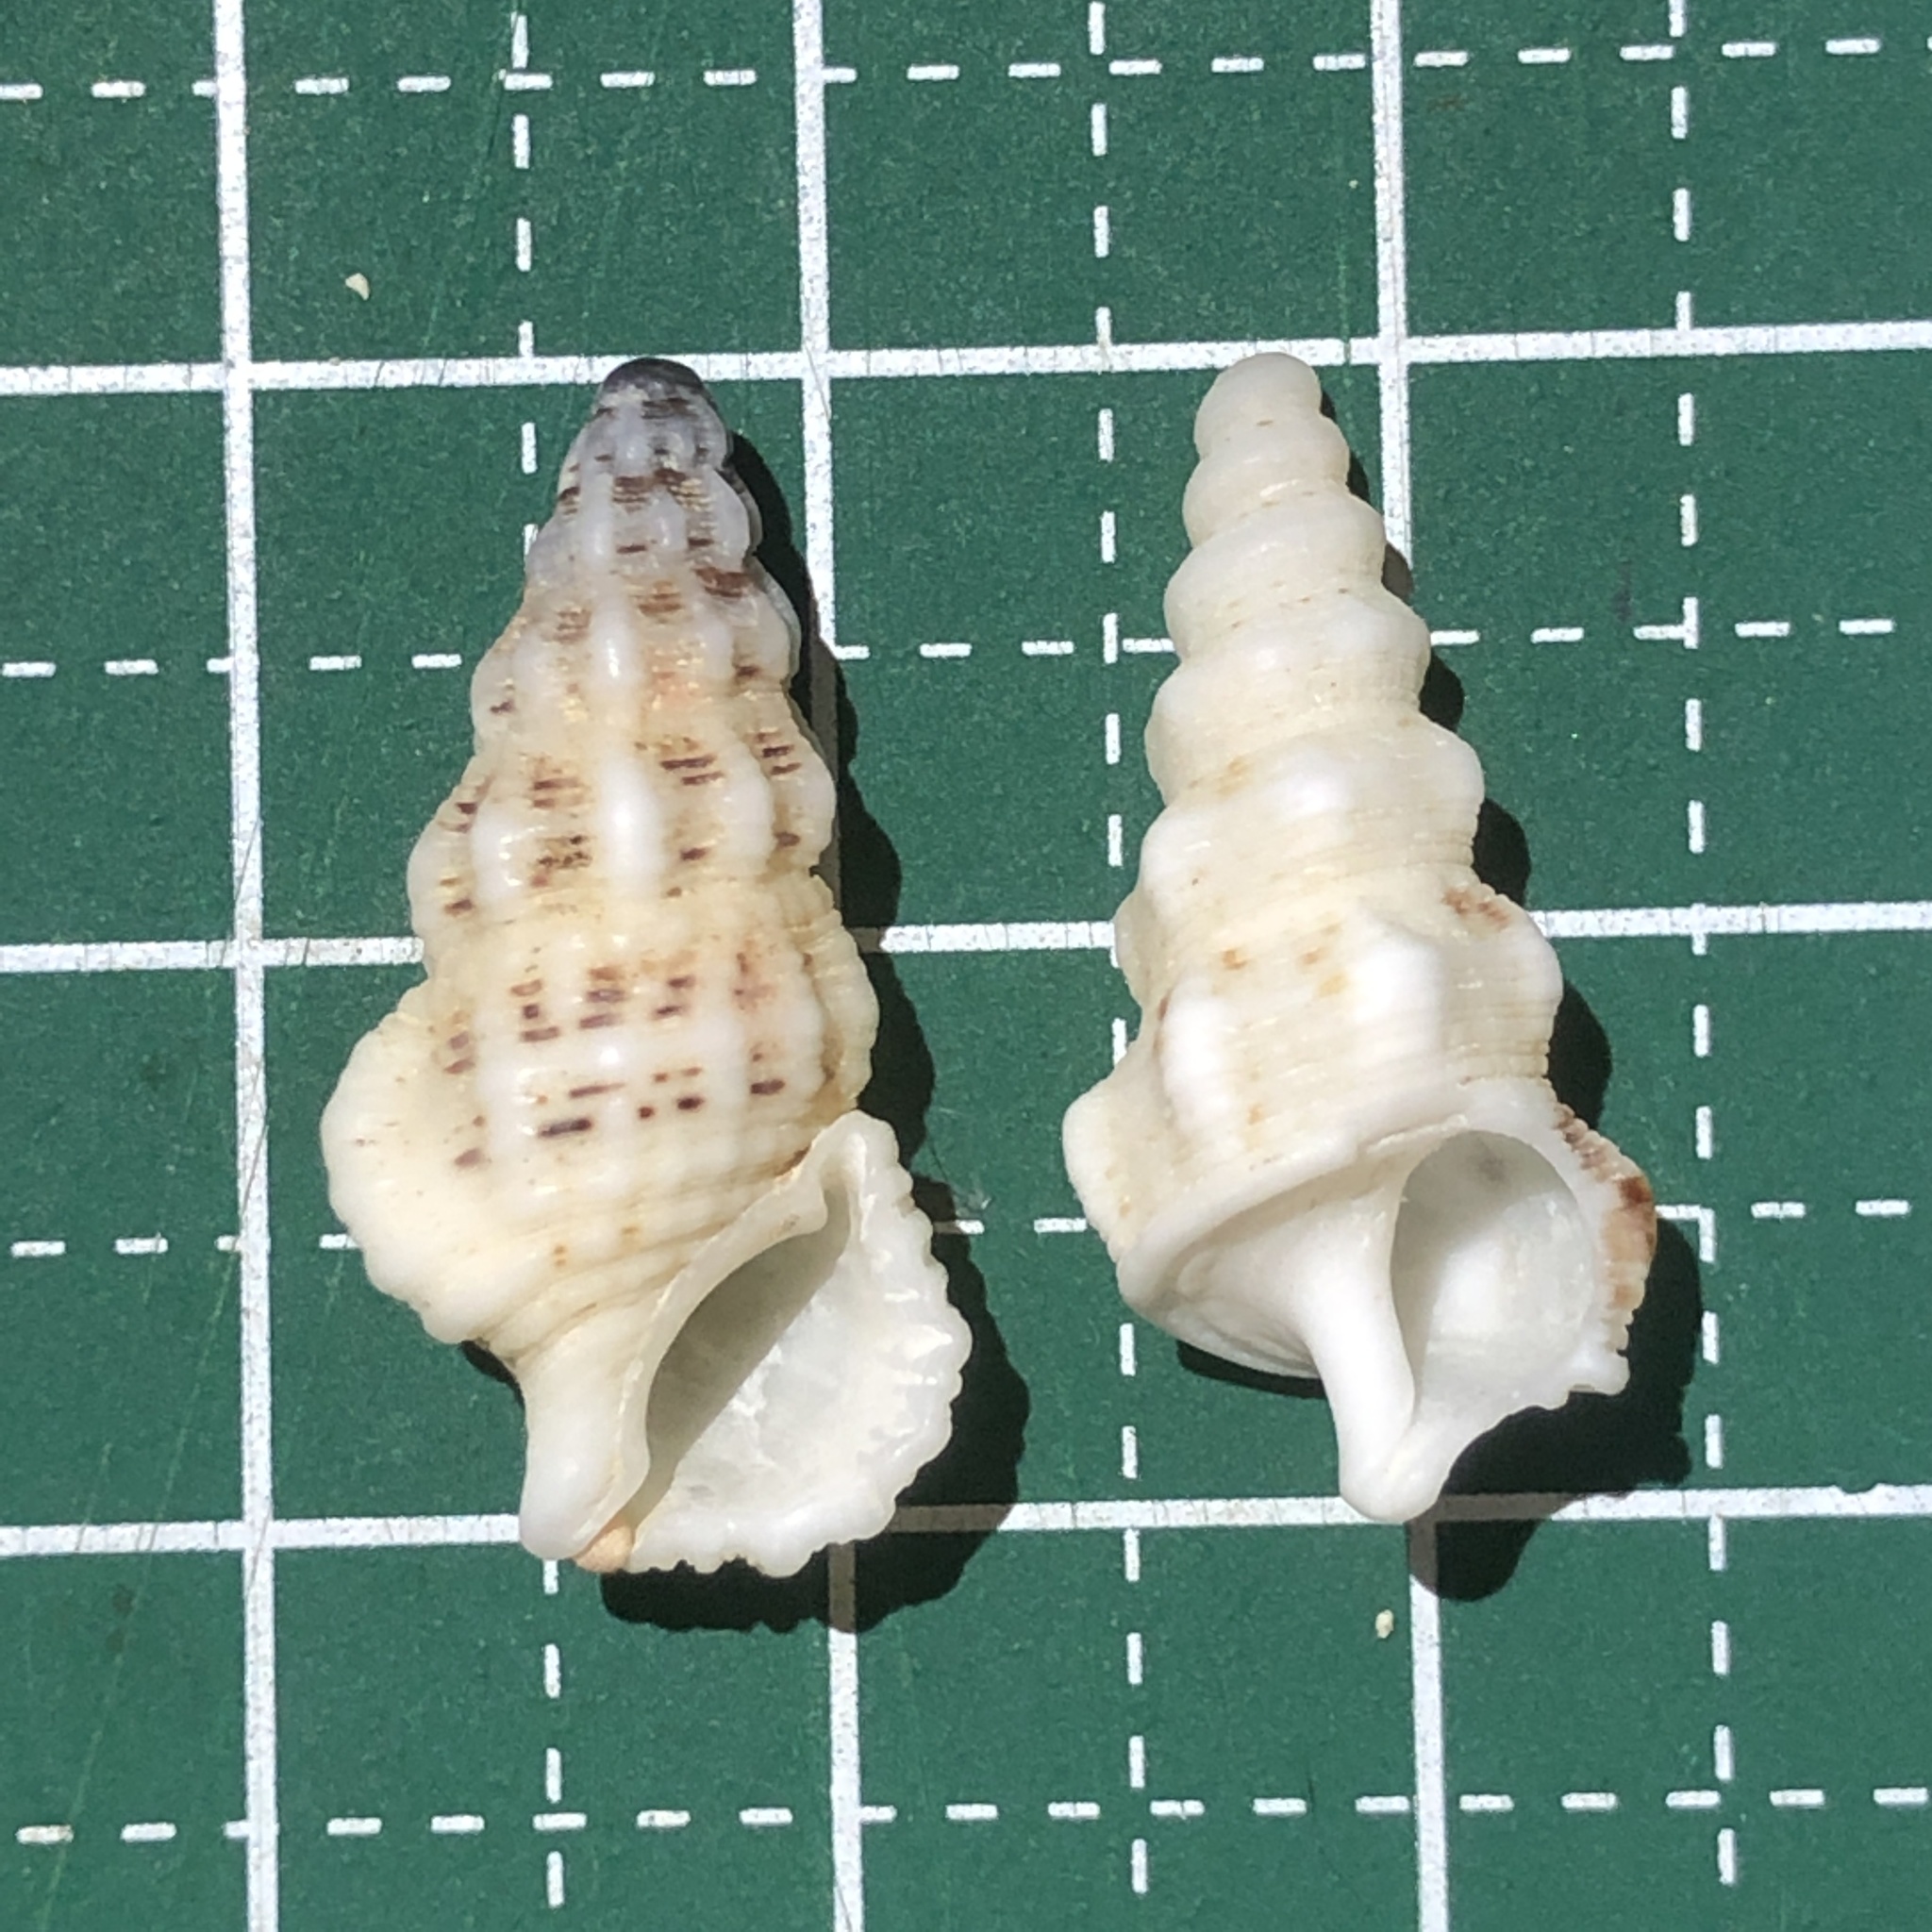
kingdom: Animalia
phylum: Mollusca
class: Gastropoda
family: Cerithiidae
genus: Cerithium
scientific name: Cerithium columna
